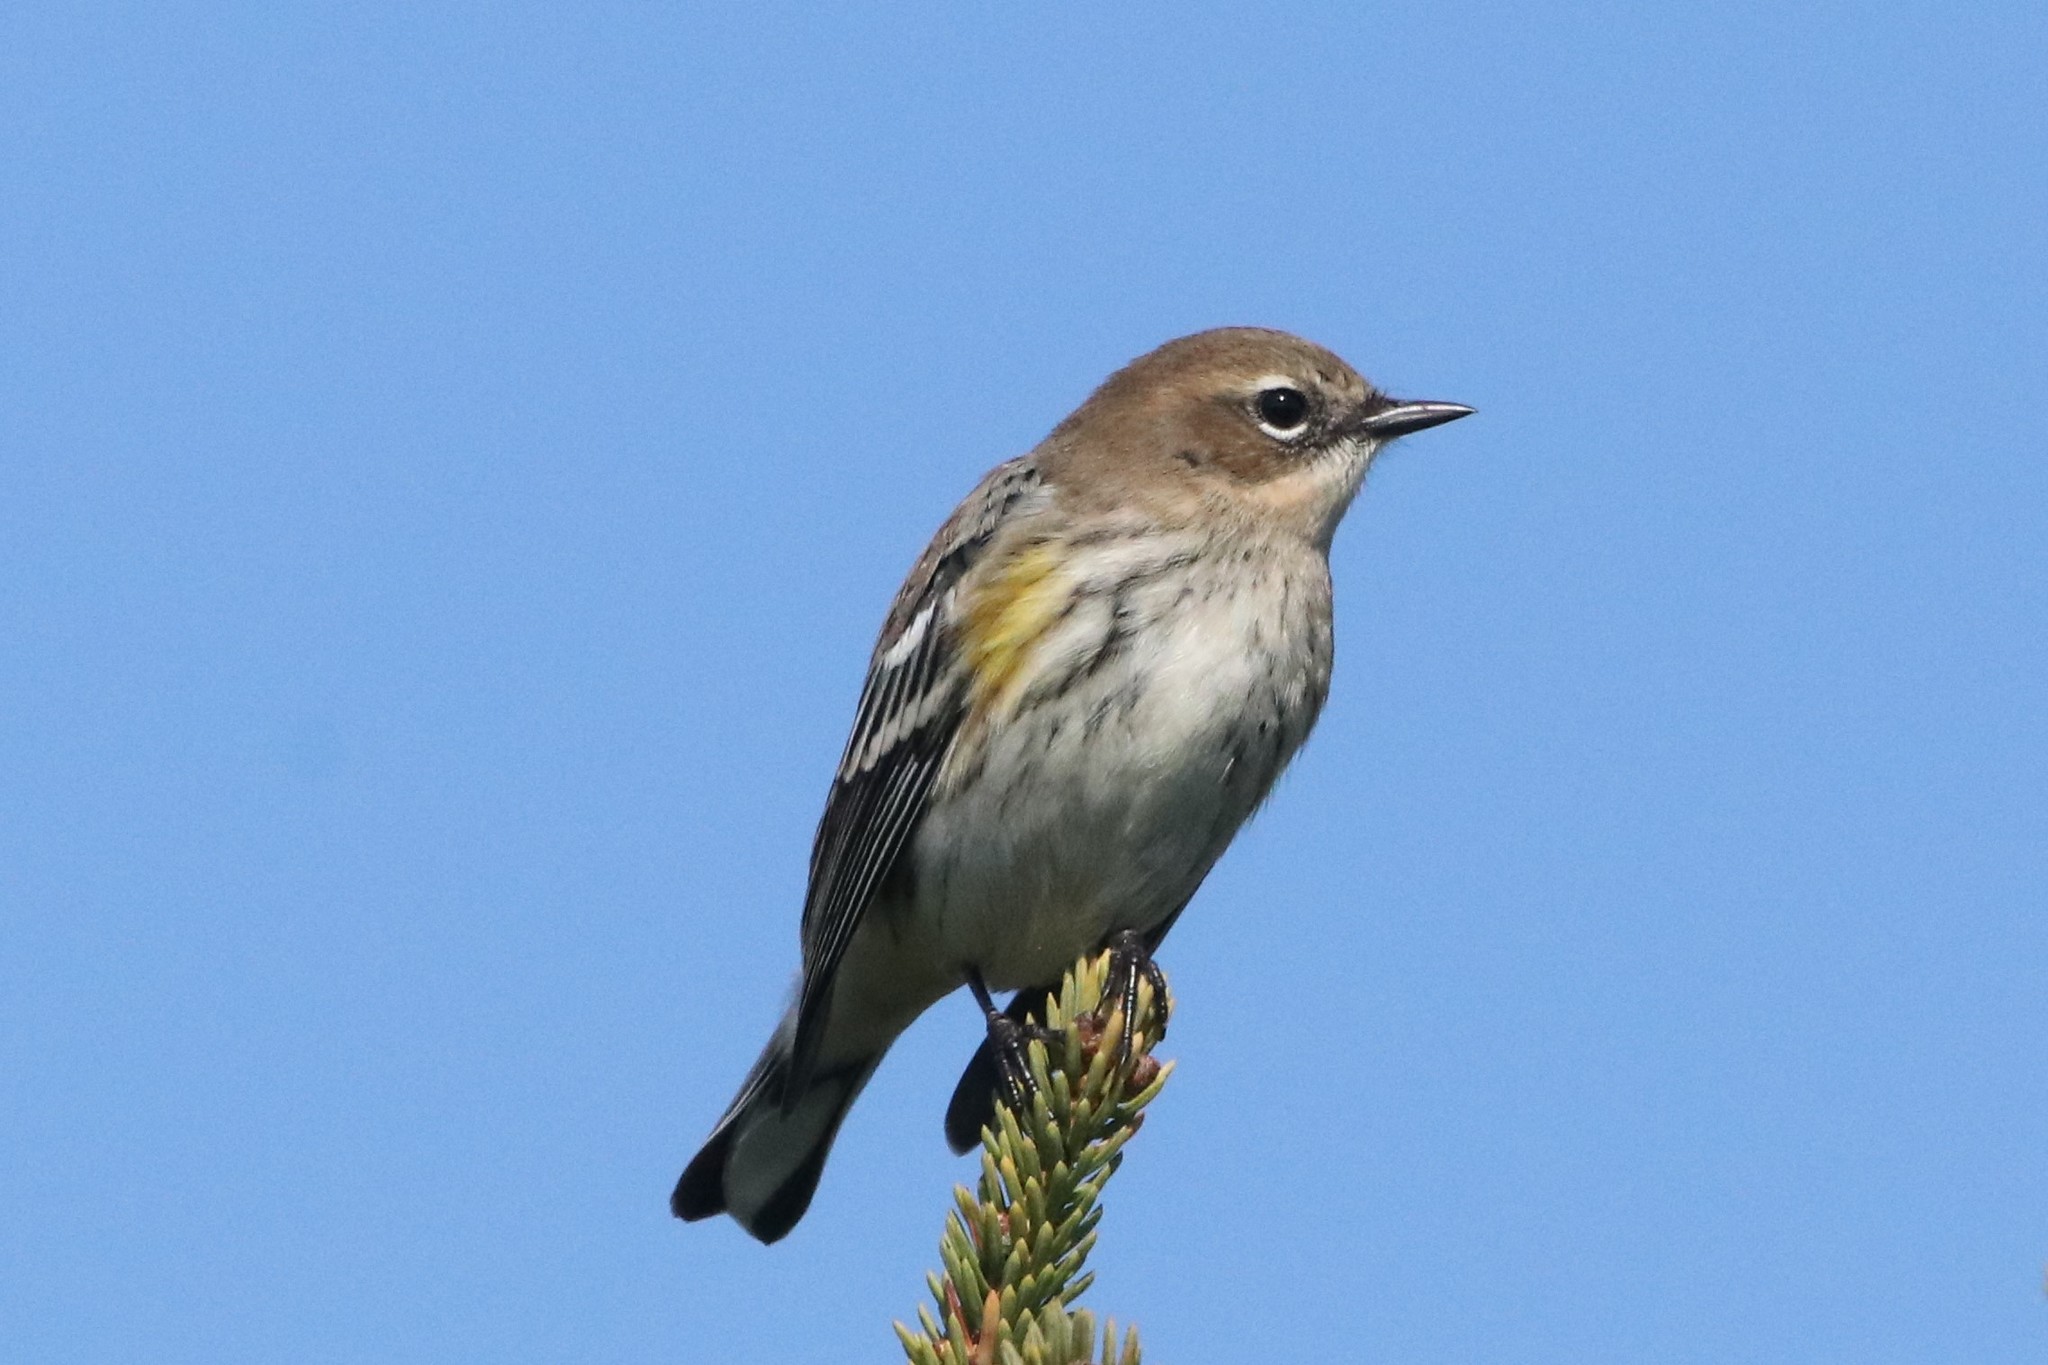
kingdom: Animalia
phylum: Chordata
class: Aves
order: Passeriformes
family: Parulidae
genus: Setophaga
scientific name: Setophaga coronata
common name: Myrtle warbler
